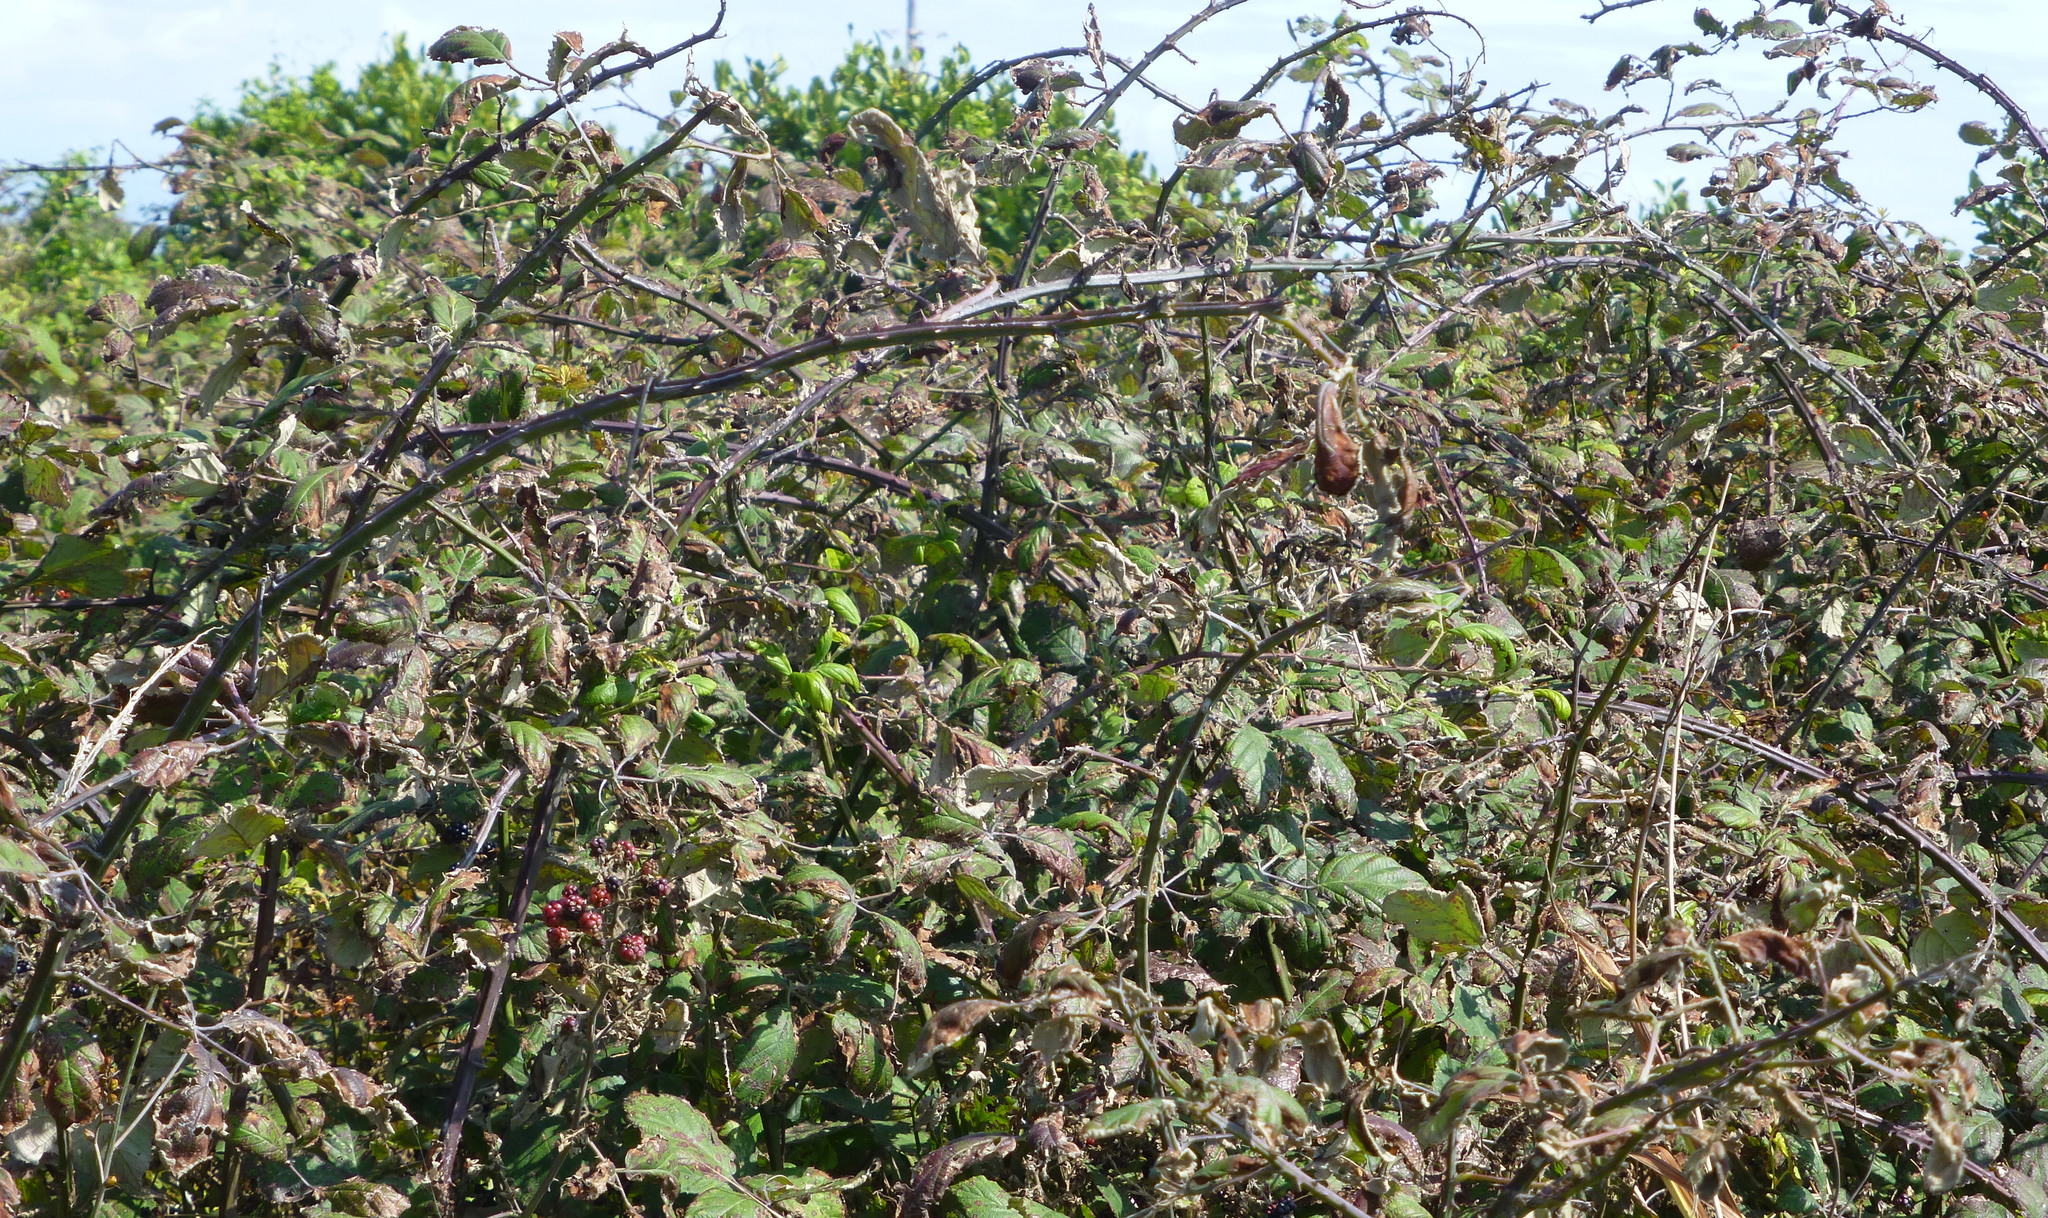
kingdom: Plantae
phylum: Tracheophyta
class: Magnoliopsida
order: Rosales
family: Rosaceae
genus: Rubus
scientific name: Rubus
